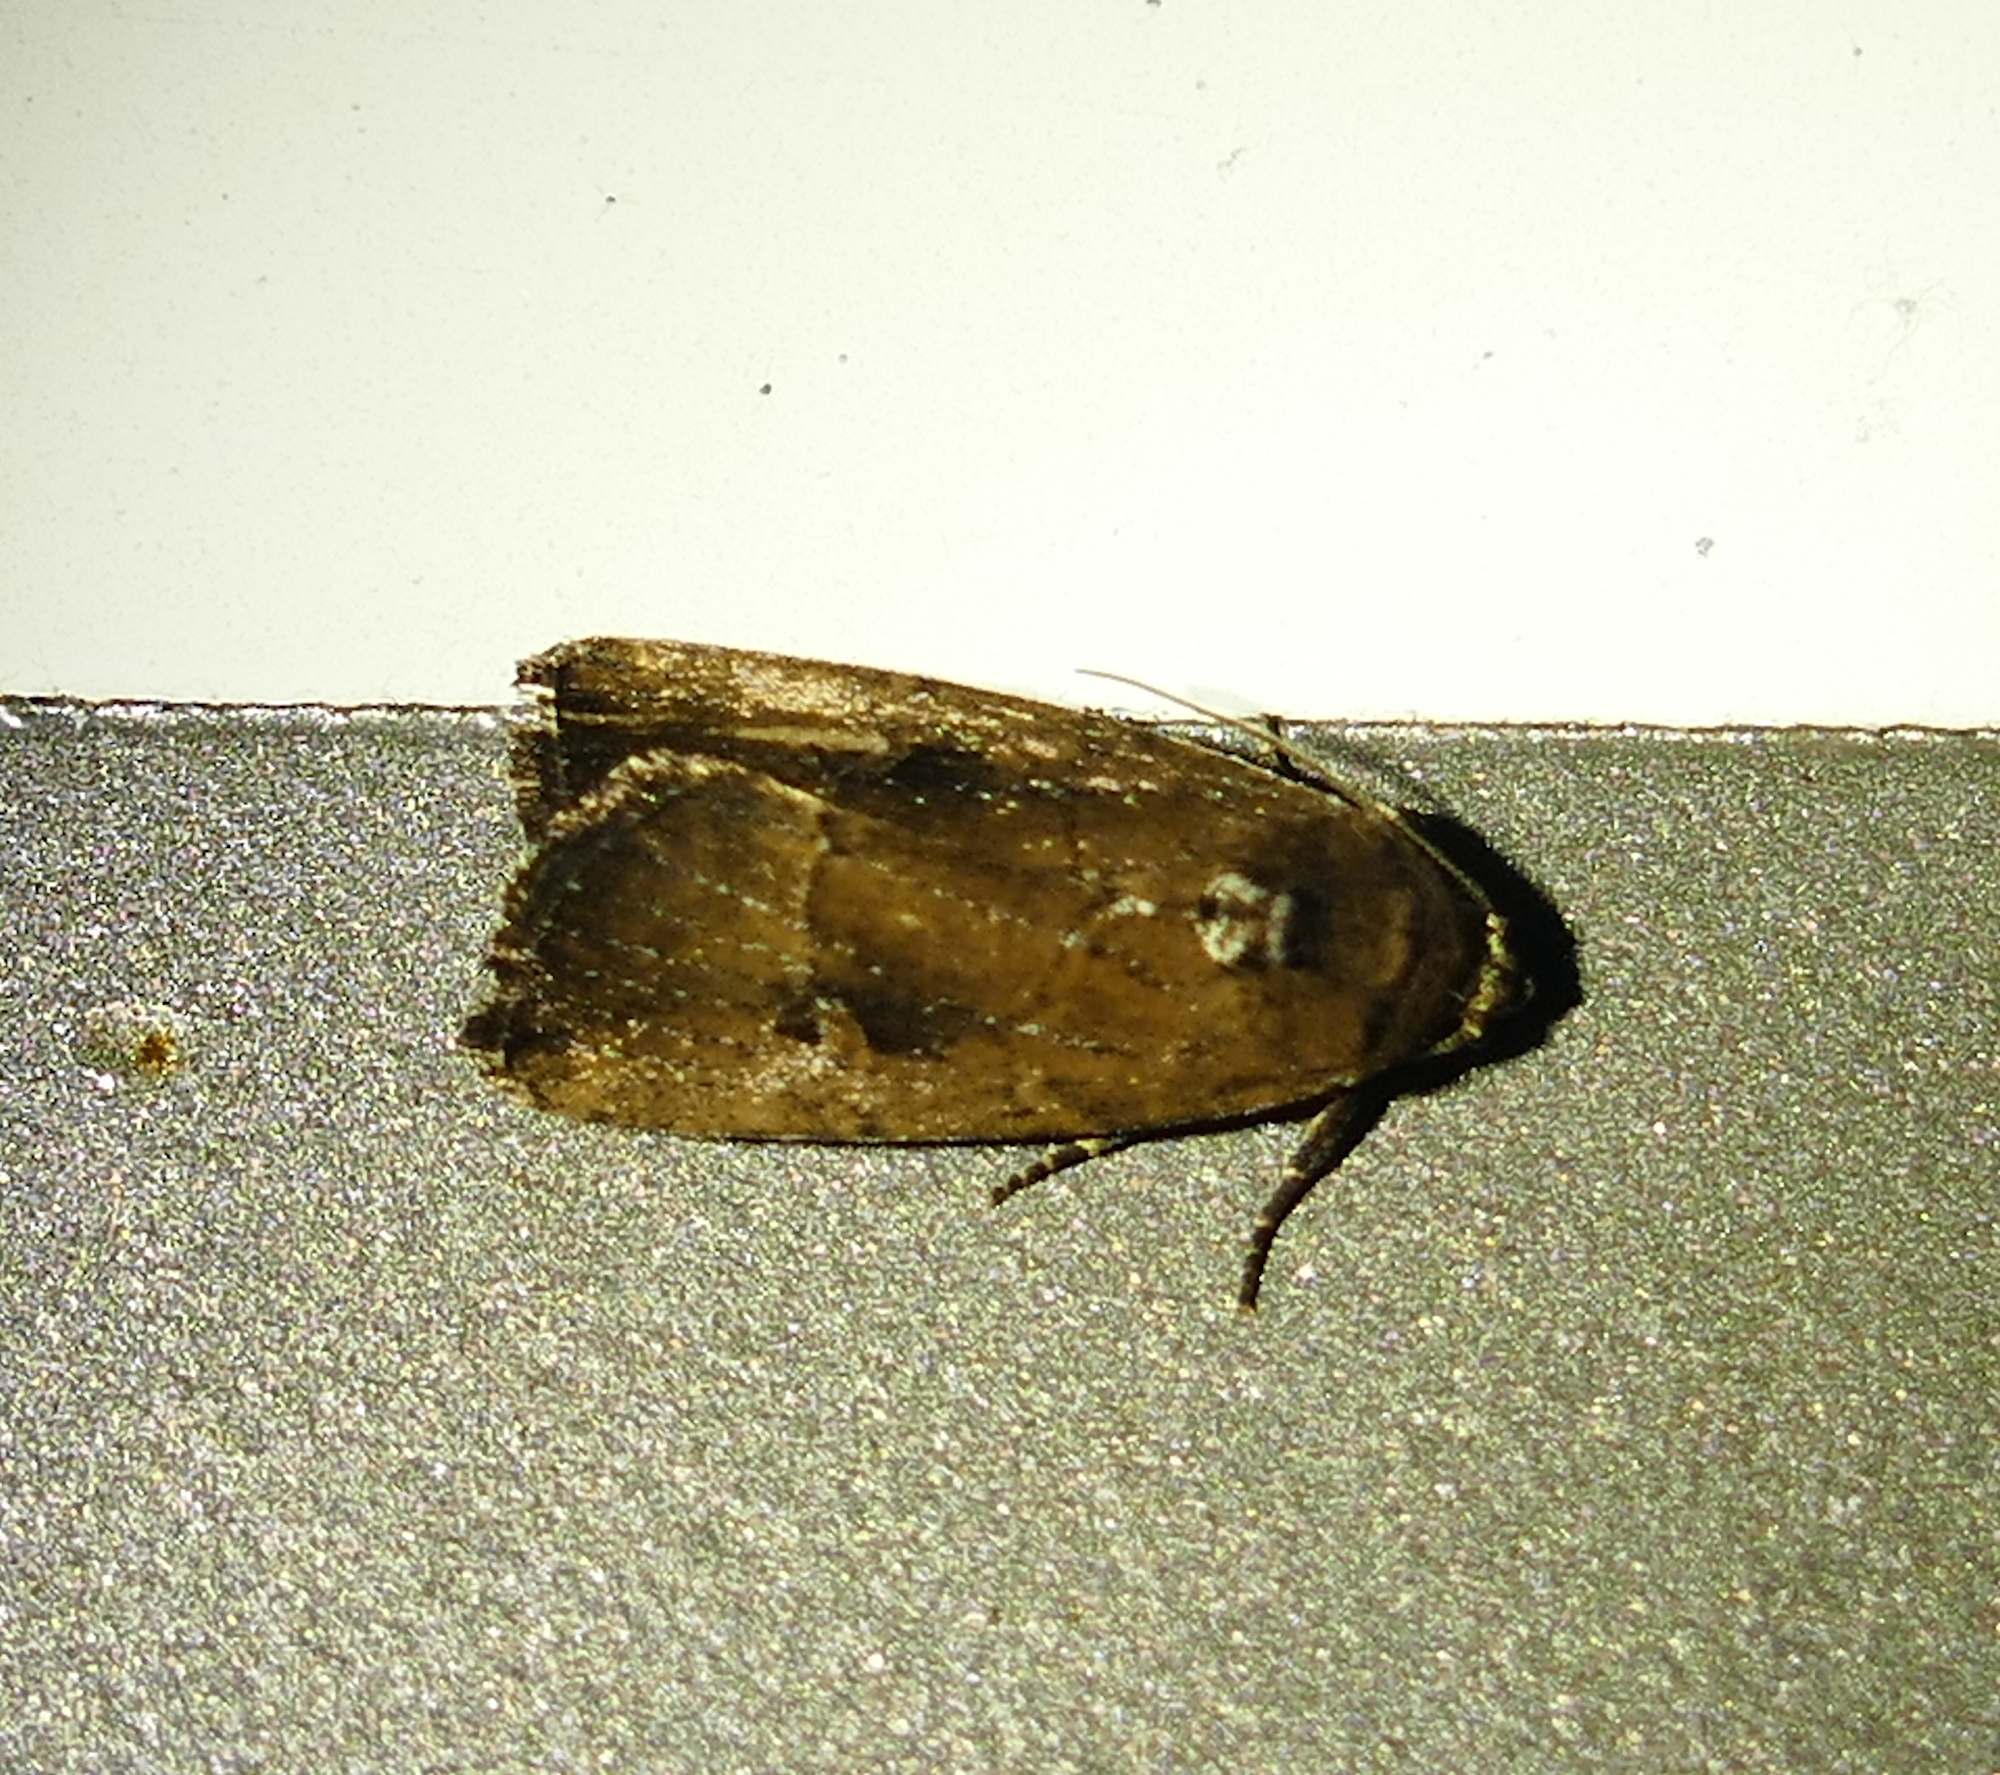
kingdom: Animalia
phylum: Arthropoda
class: Insecta
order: Lepidoptera
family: Noctuidae
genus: Elaphria
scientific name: Elaphria nucicolora
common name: Sugarcane midget moth
